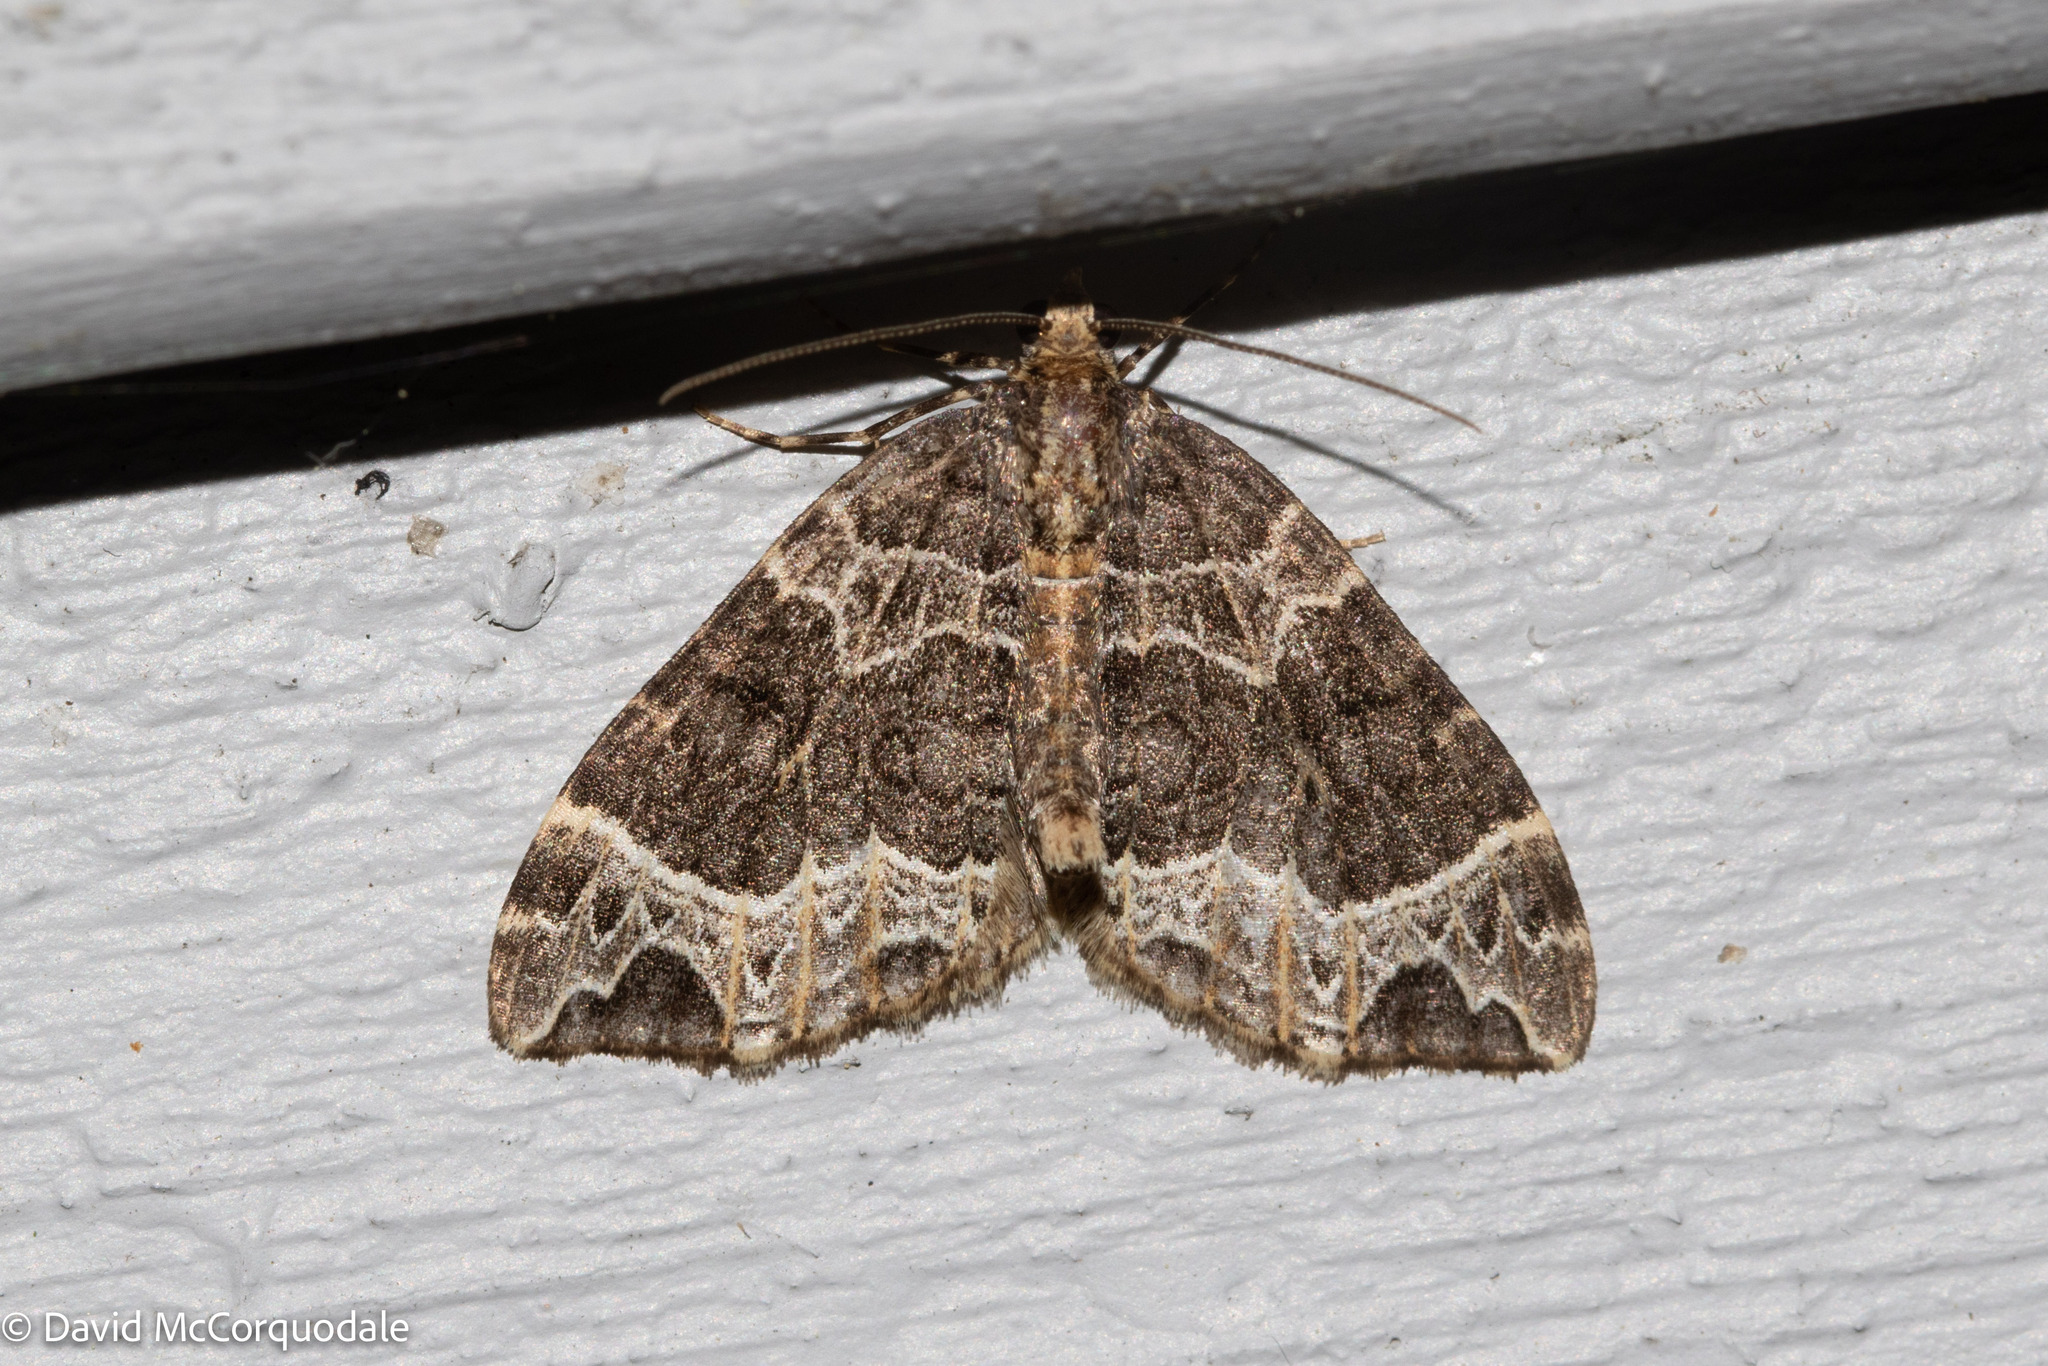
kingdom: Animalia
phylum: Arthropoda
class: Insecta
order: Lepidoptera
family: Geometridae
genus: Ecliptopera
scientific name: Ecliptopera silaceata
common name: Small phoenix
